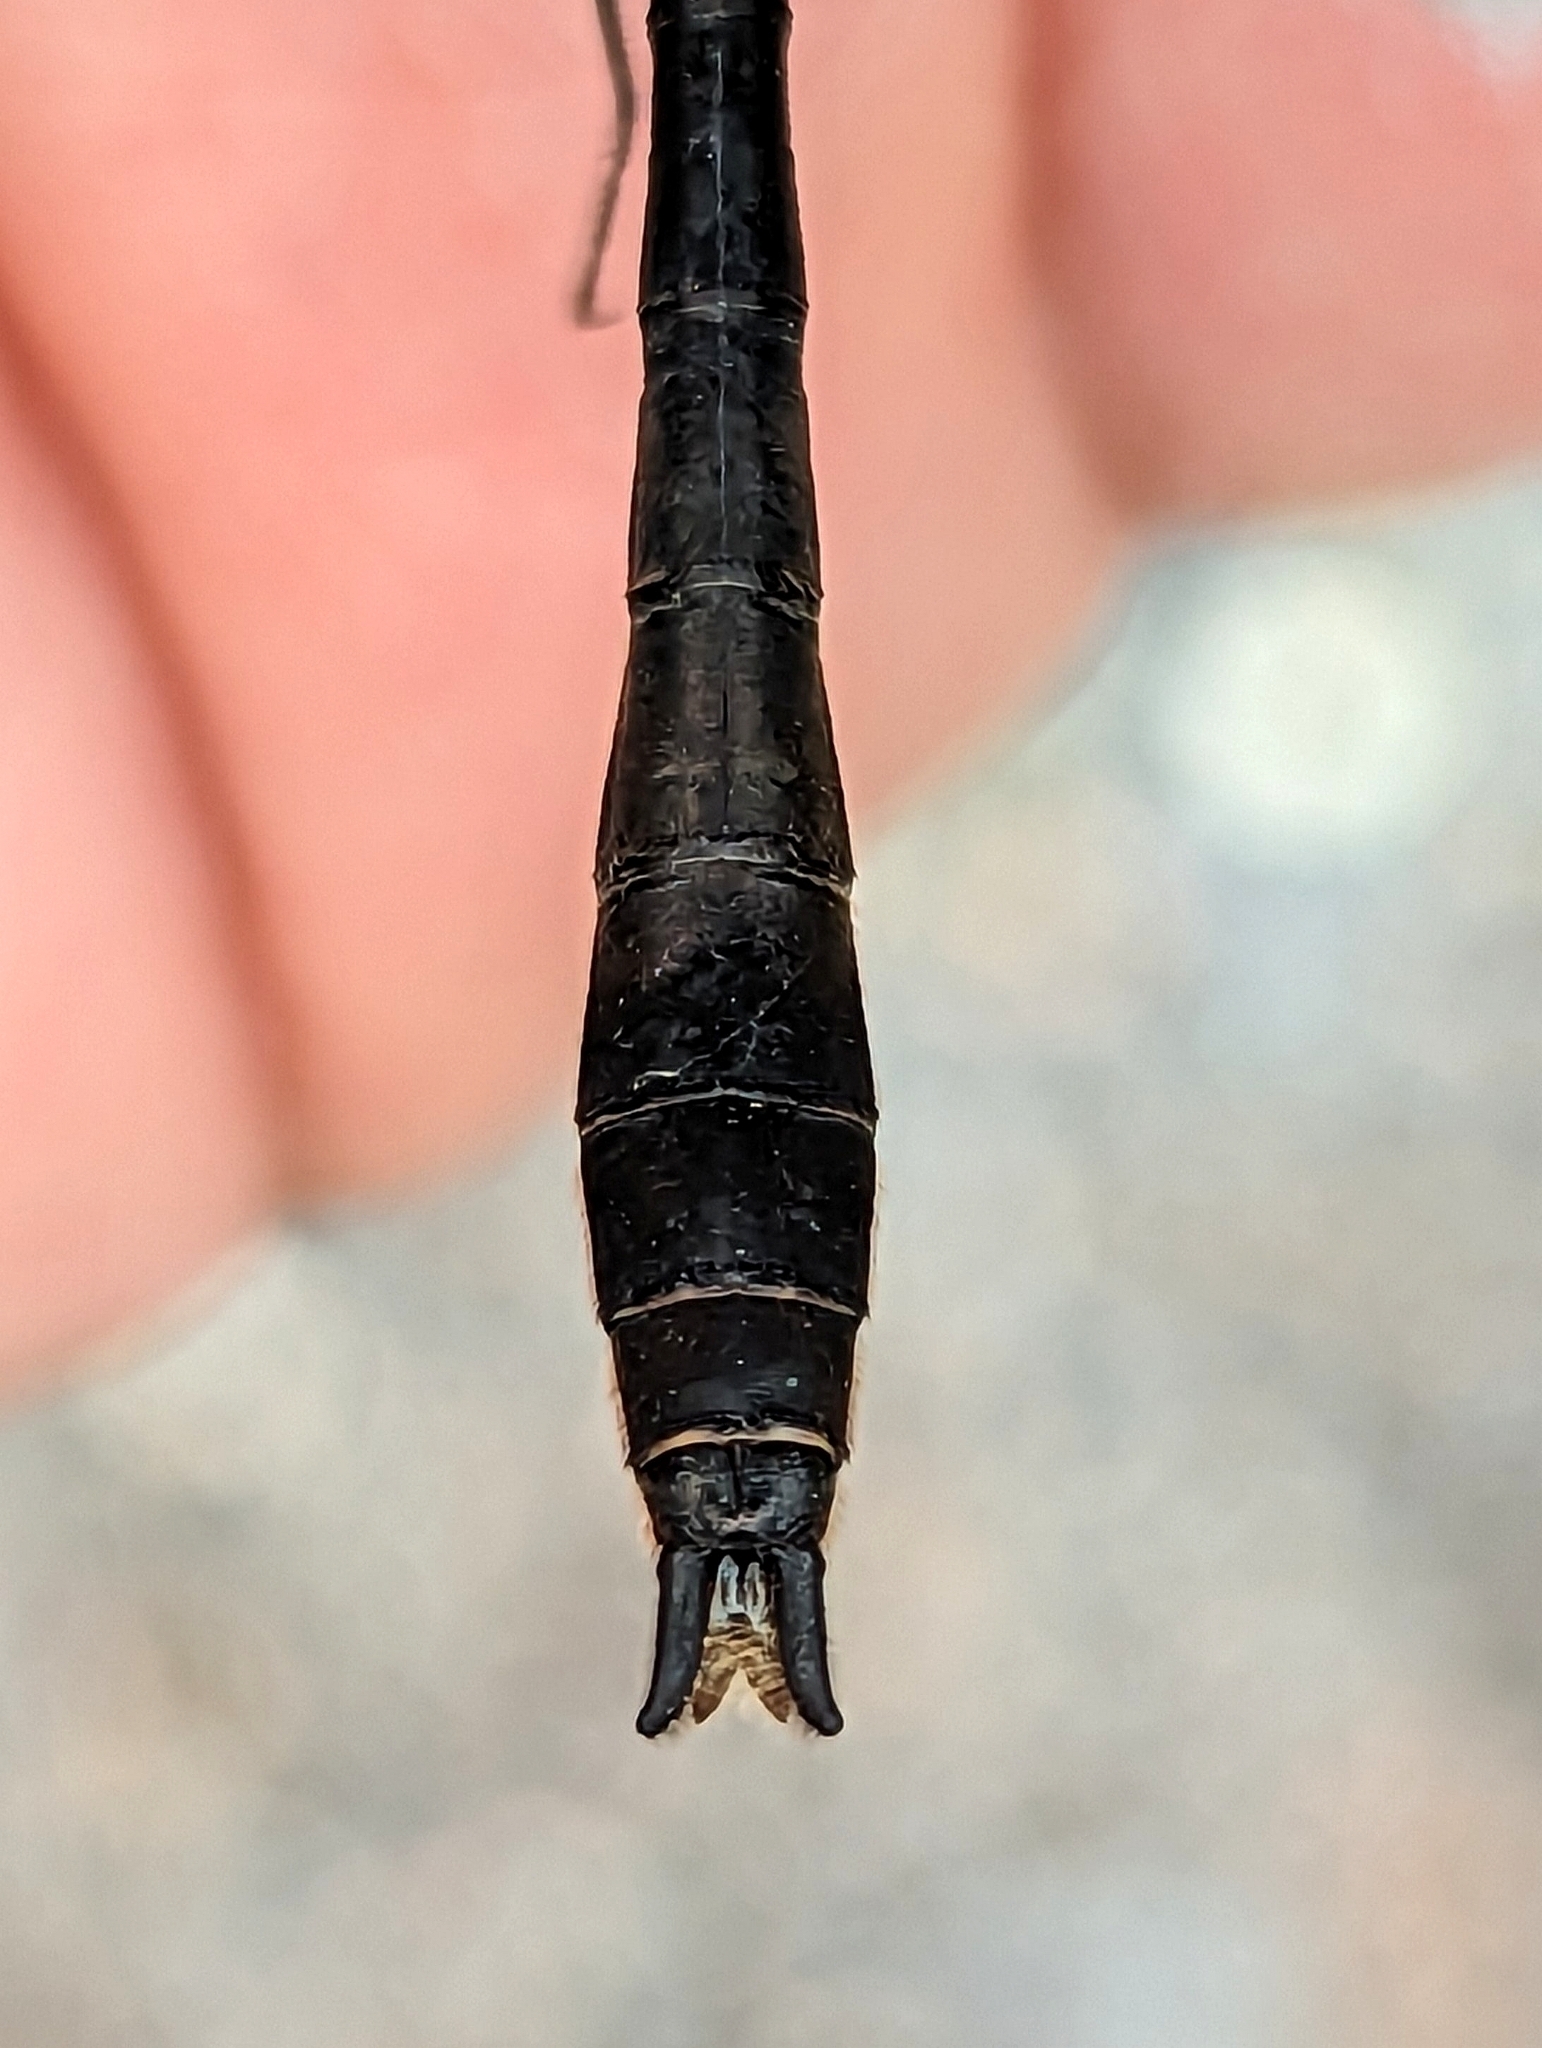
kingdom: Animalia
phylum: Arthropoda
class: Insecta
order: Odonata
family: Corduliidae
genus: Cordulia
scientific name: Cordulia shurtleffii
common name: American emerald
